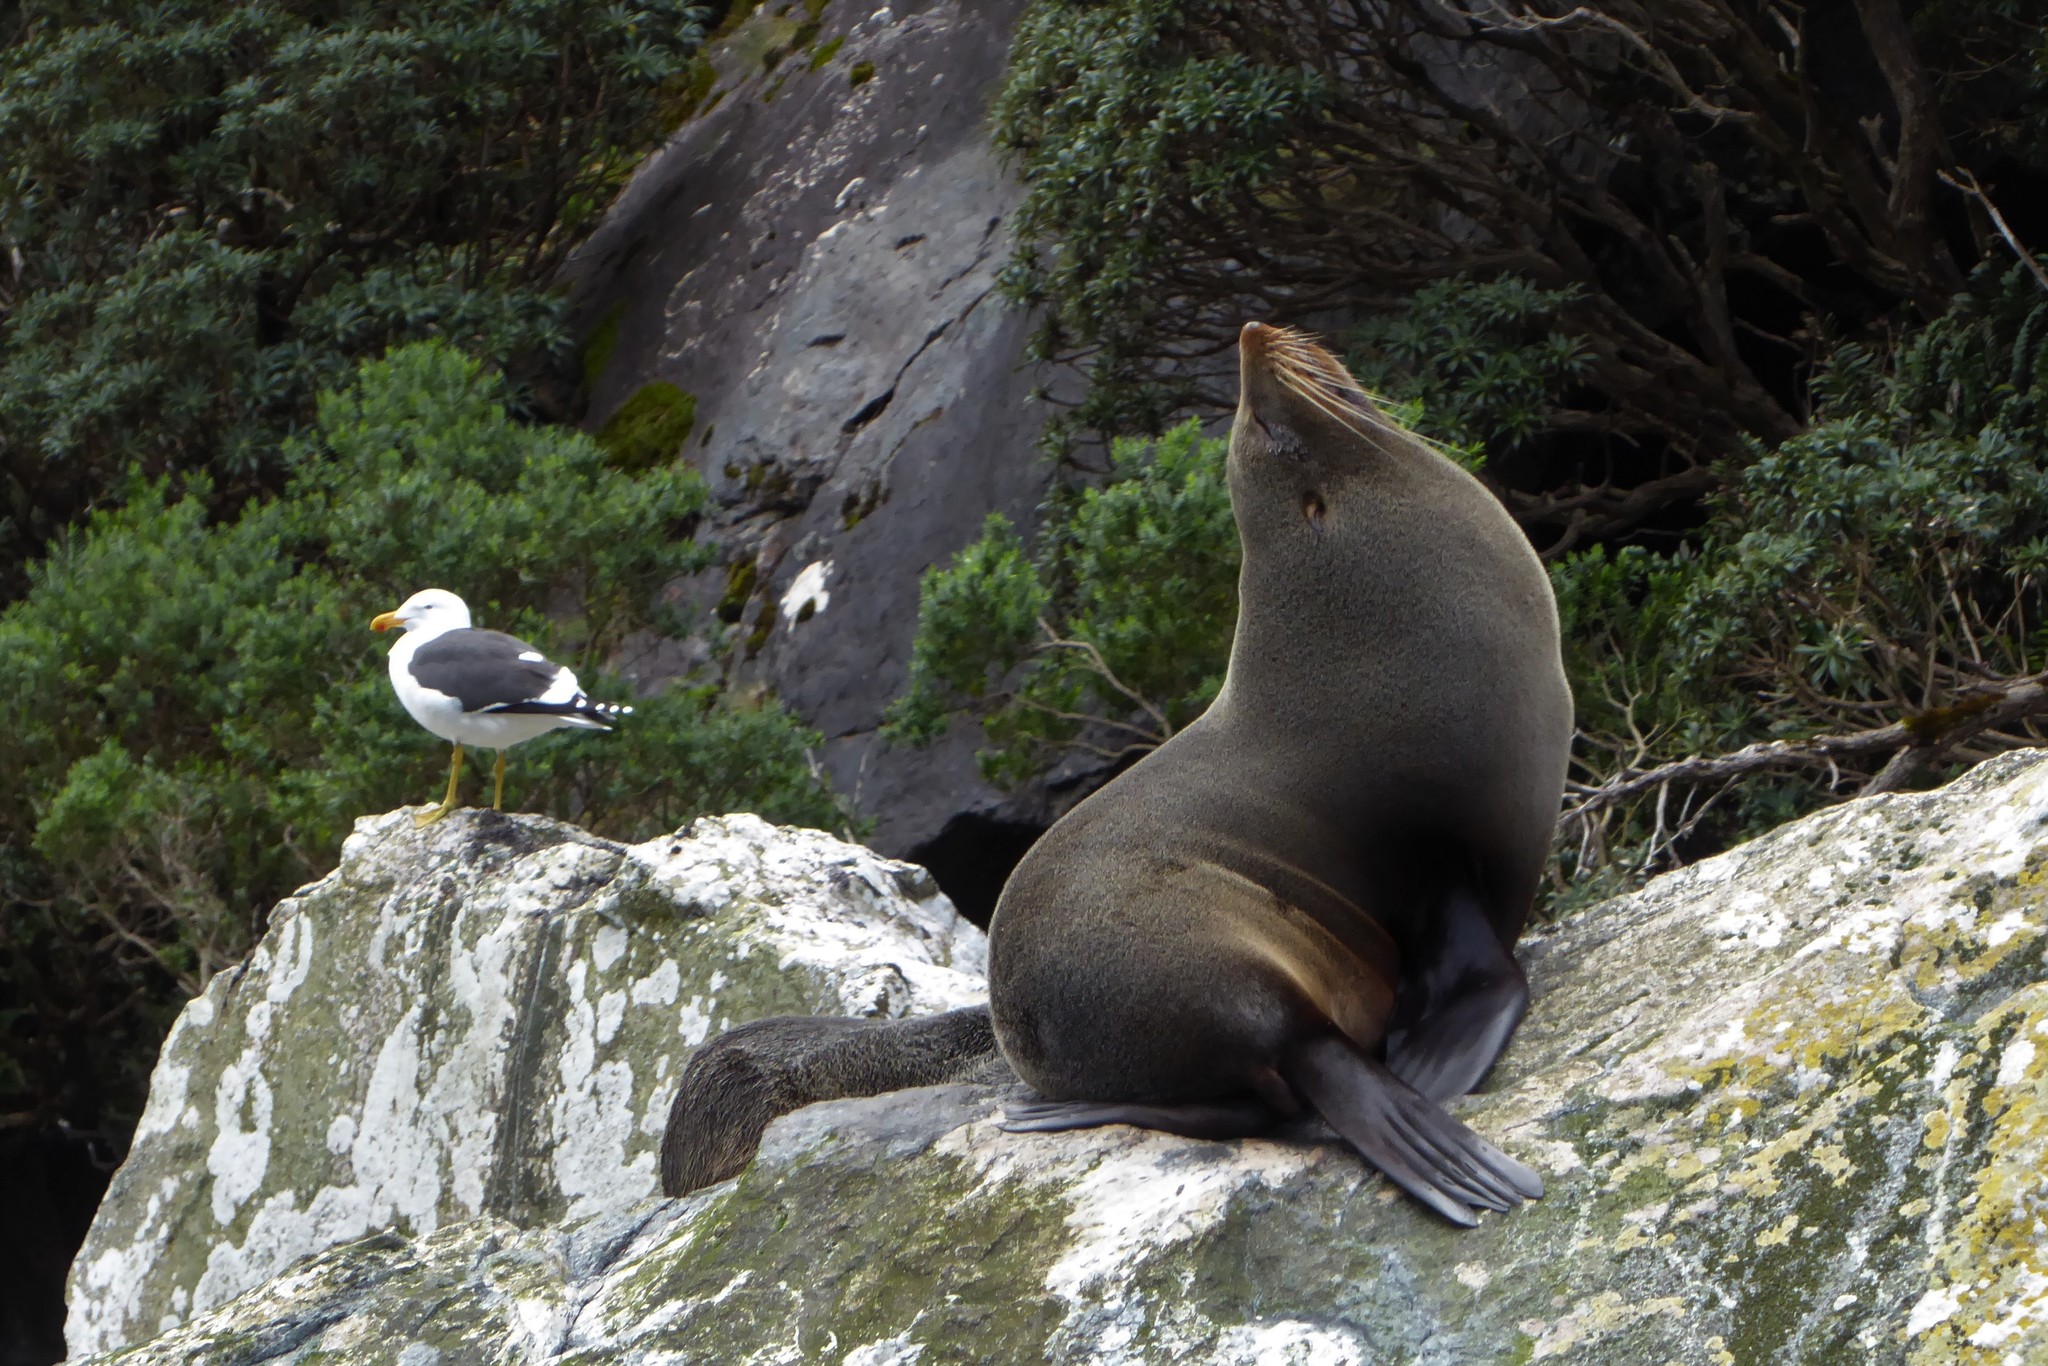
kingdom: Animalia
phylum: Chordata
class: Mammalia
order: Carnivora
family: Otariidae
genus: Arctocephalus
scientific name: Arctocephalus forsteri
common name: New zealand fur seal
